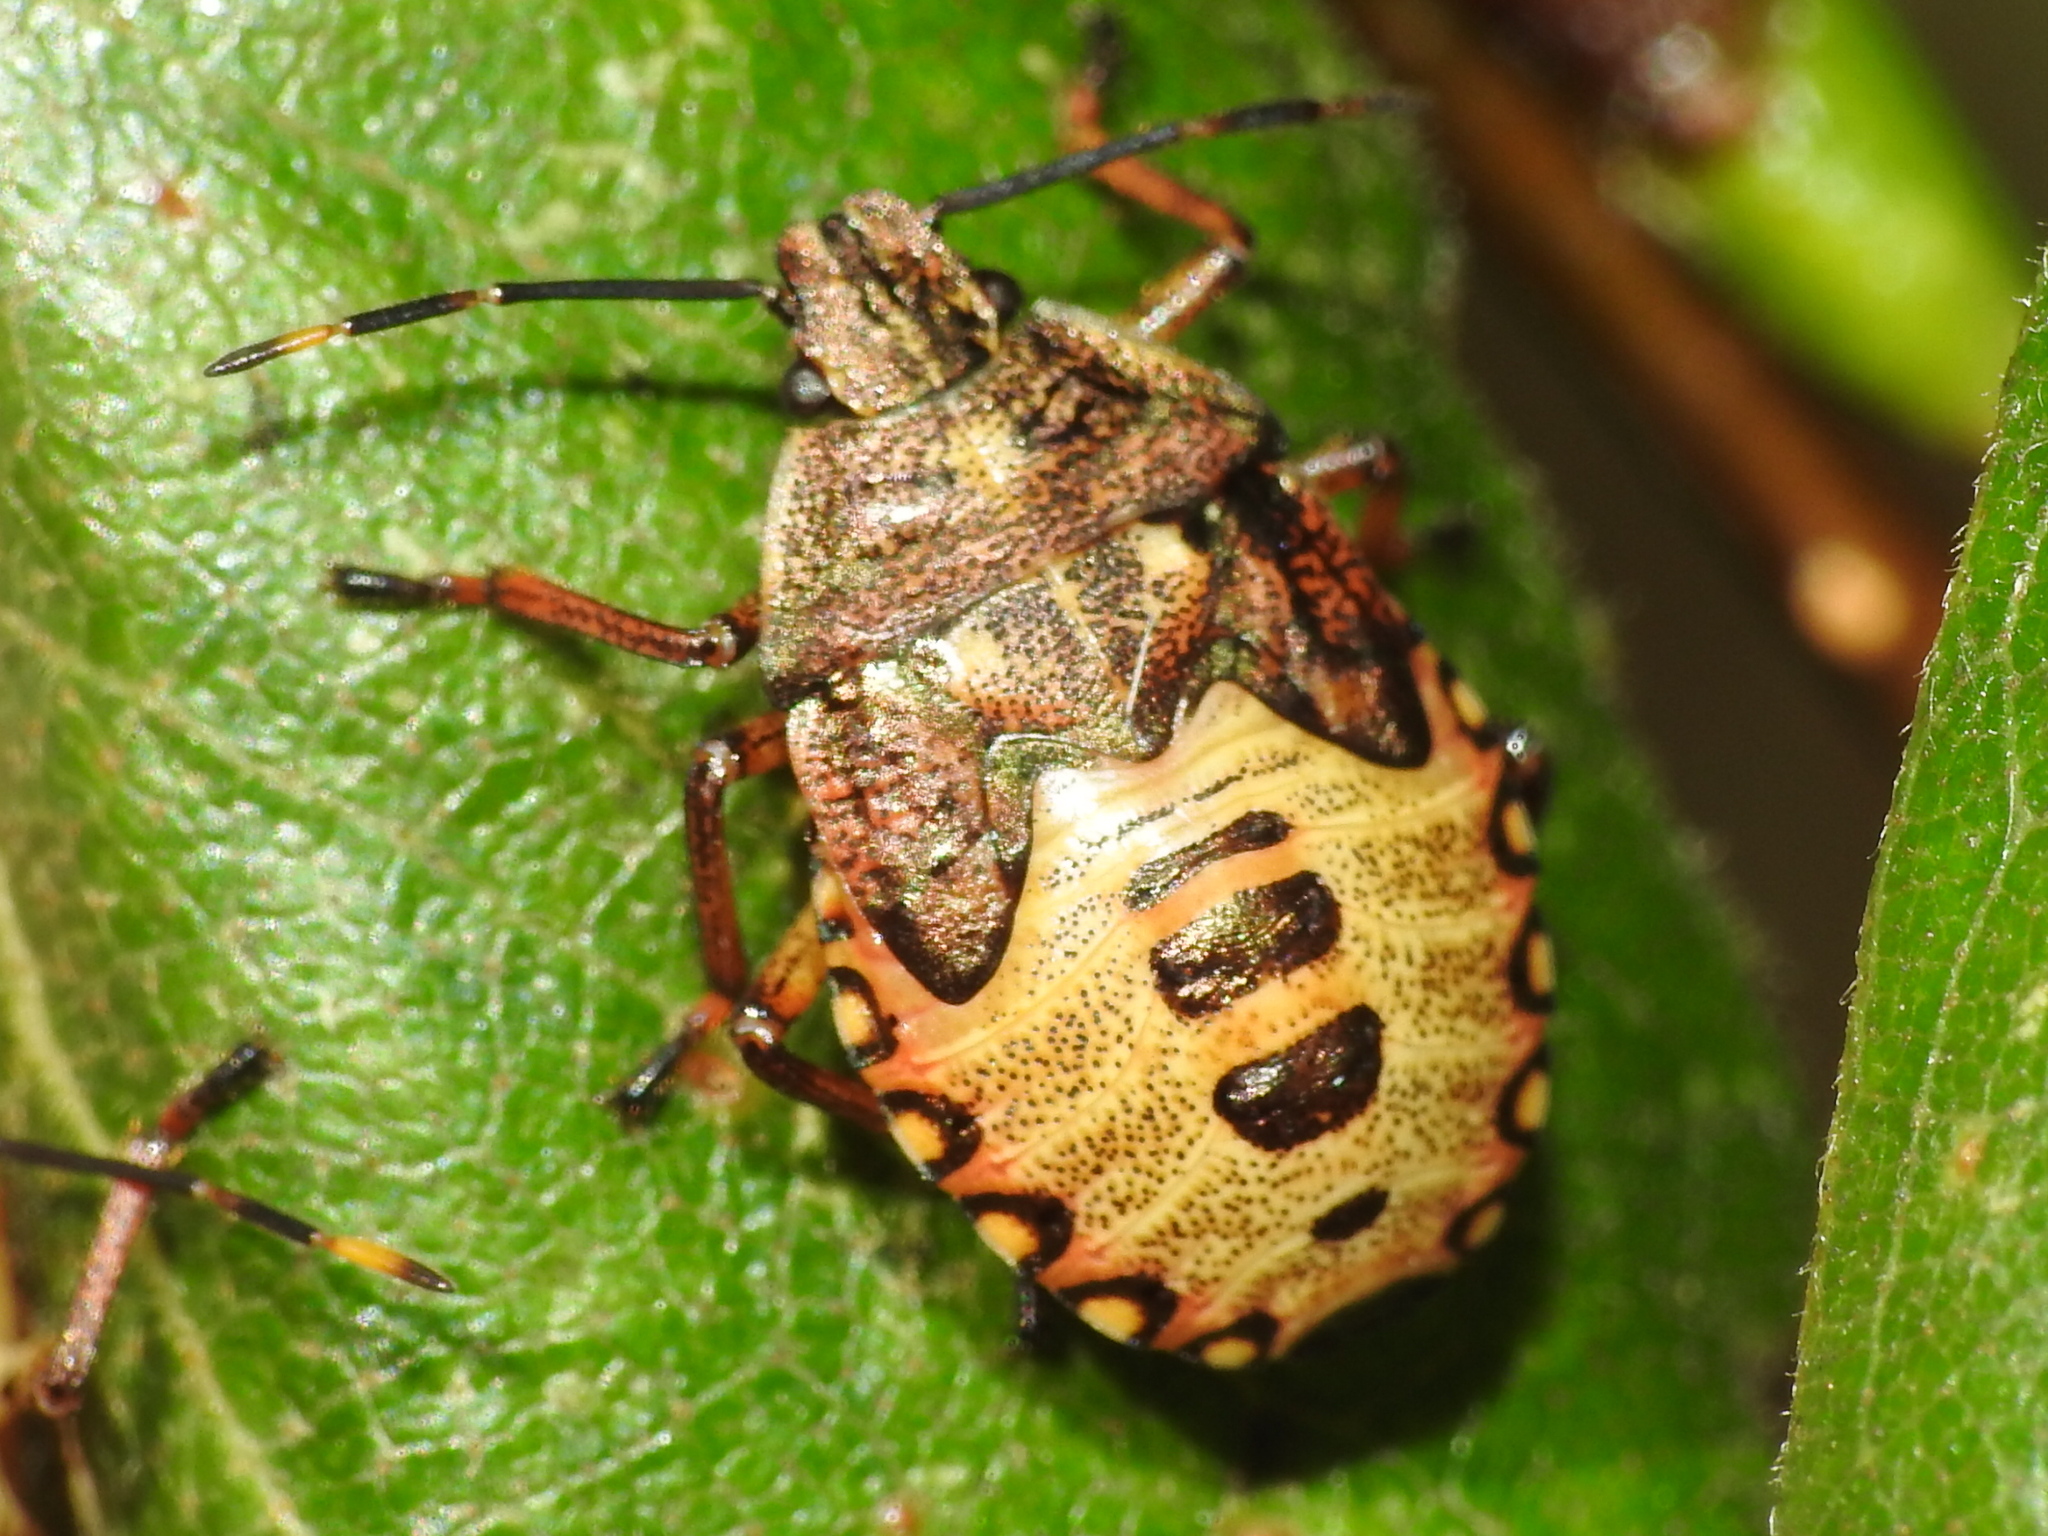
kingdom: Animalia
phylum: Arthropoda
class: Insecta
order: Hemiptera
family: Pentatomidae
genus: Arma
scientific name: Arma custos
